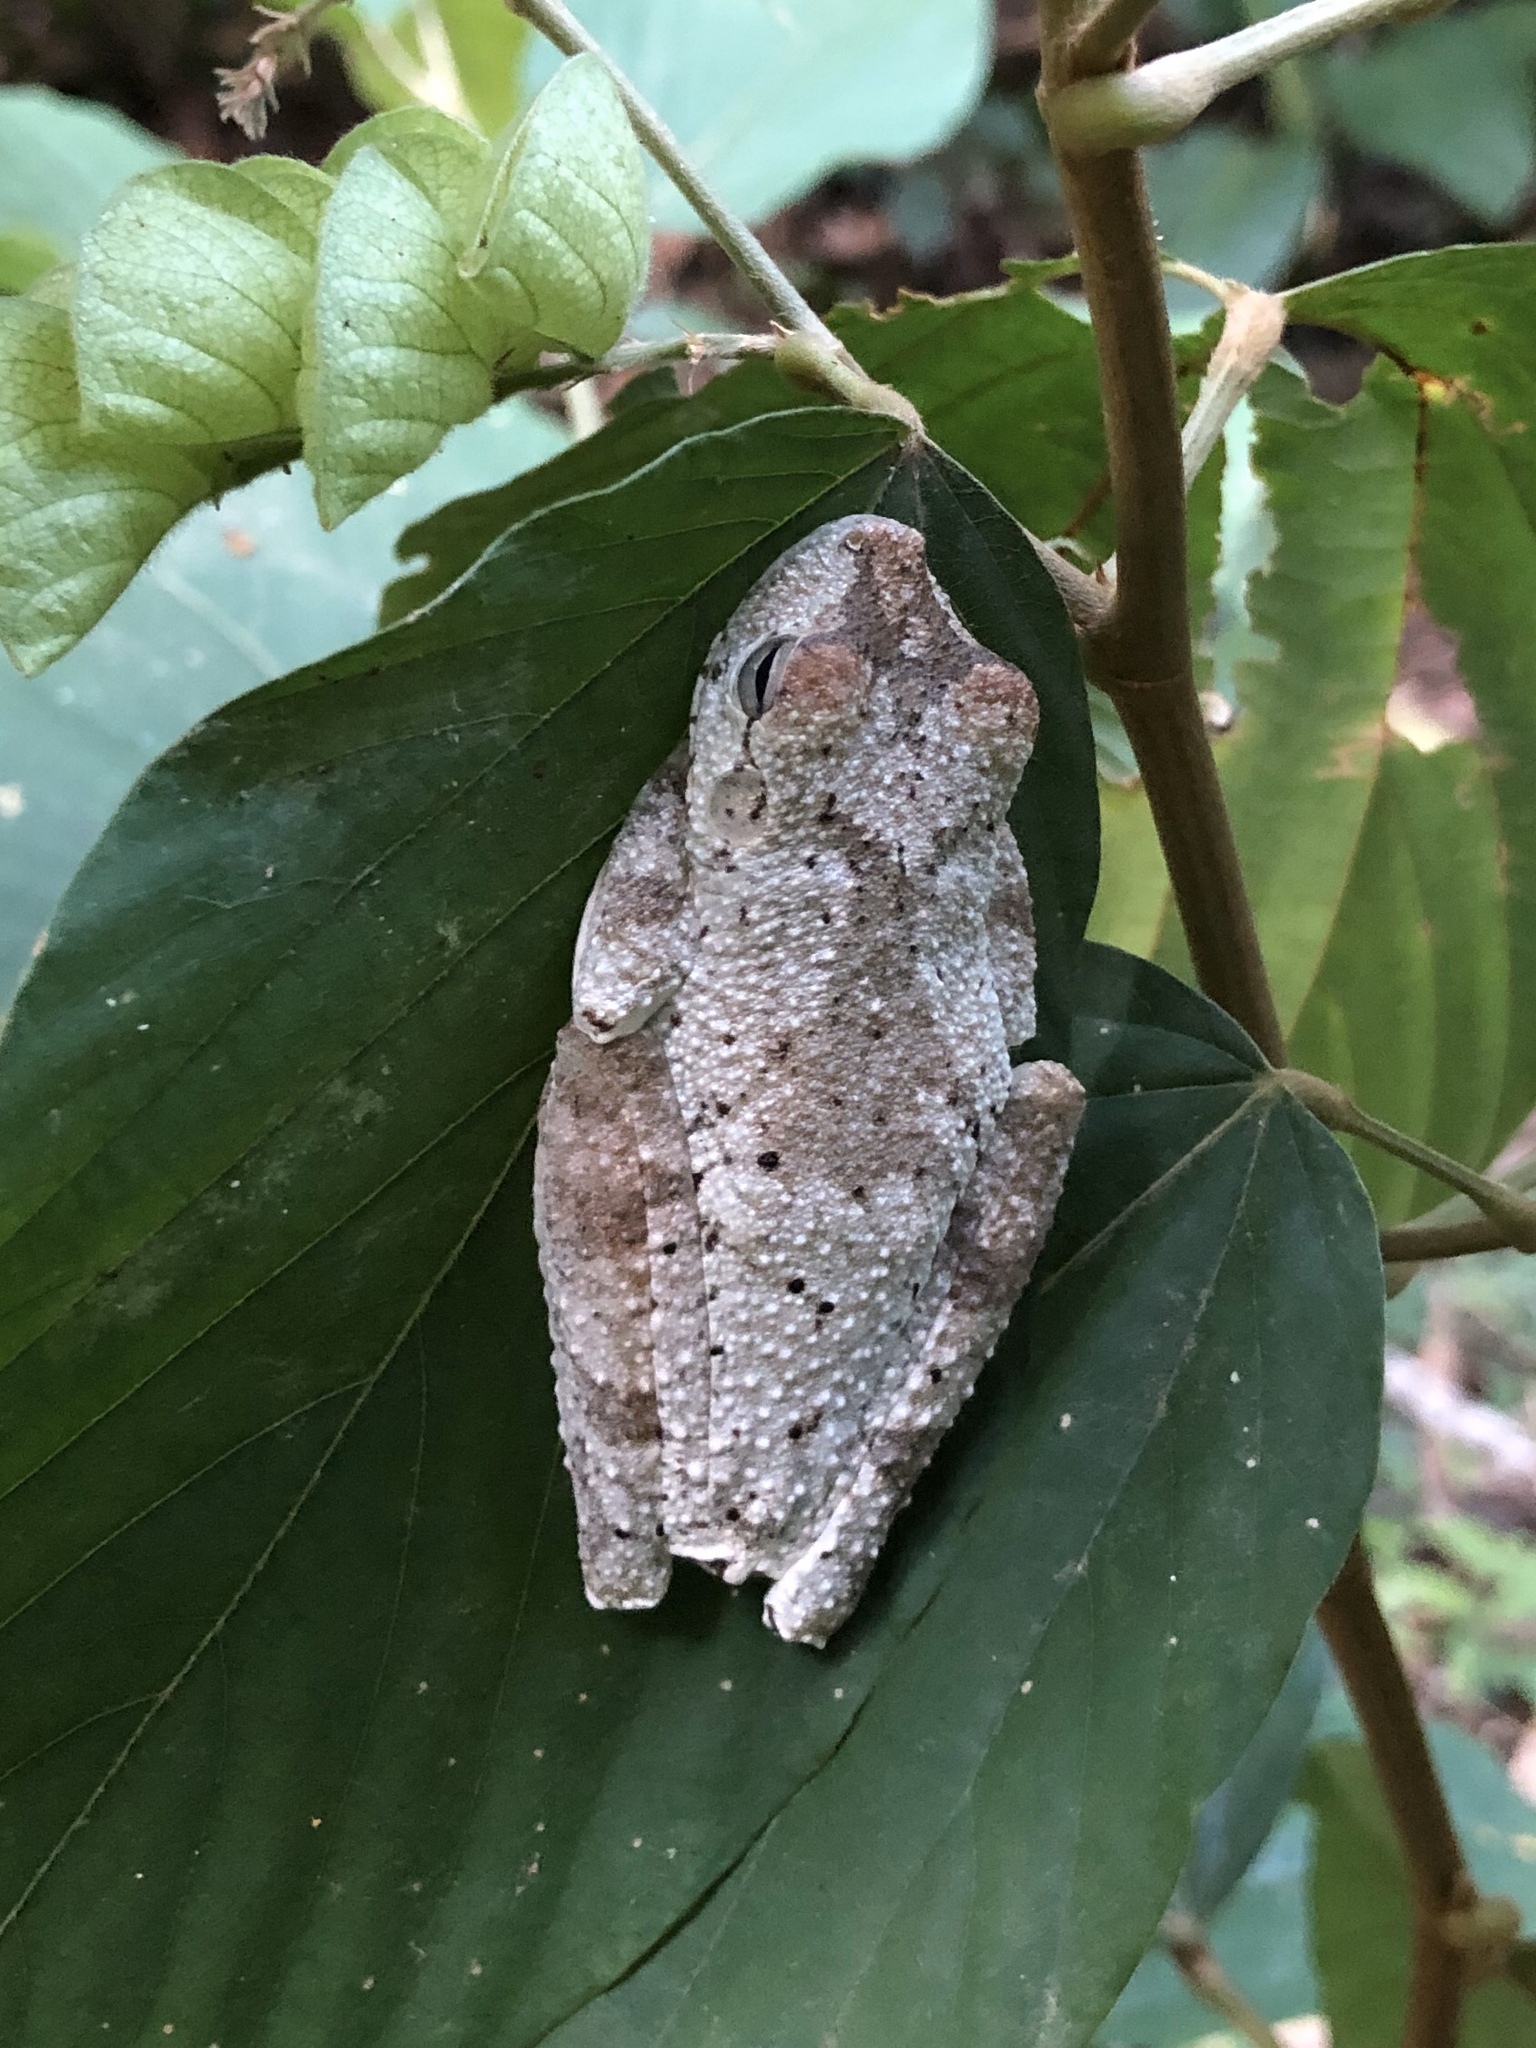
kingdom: Animalia
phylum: Chordata
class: Amphibia
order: Anura
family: Hylidae
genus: Boana
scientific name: Boana rosenbergi
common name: Rosenberg´s gladiator treefrog
